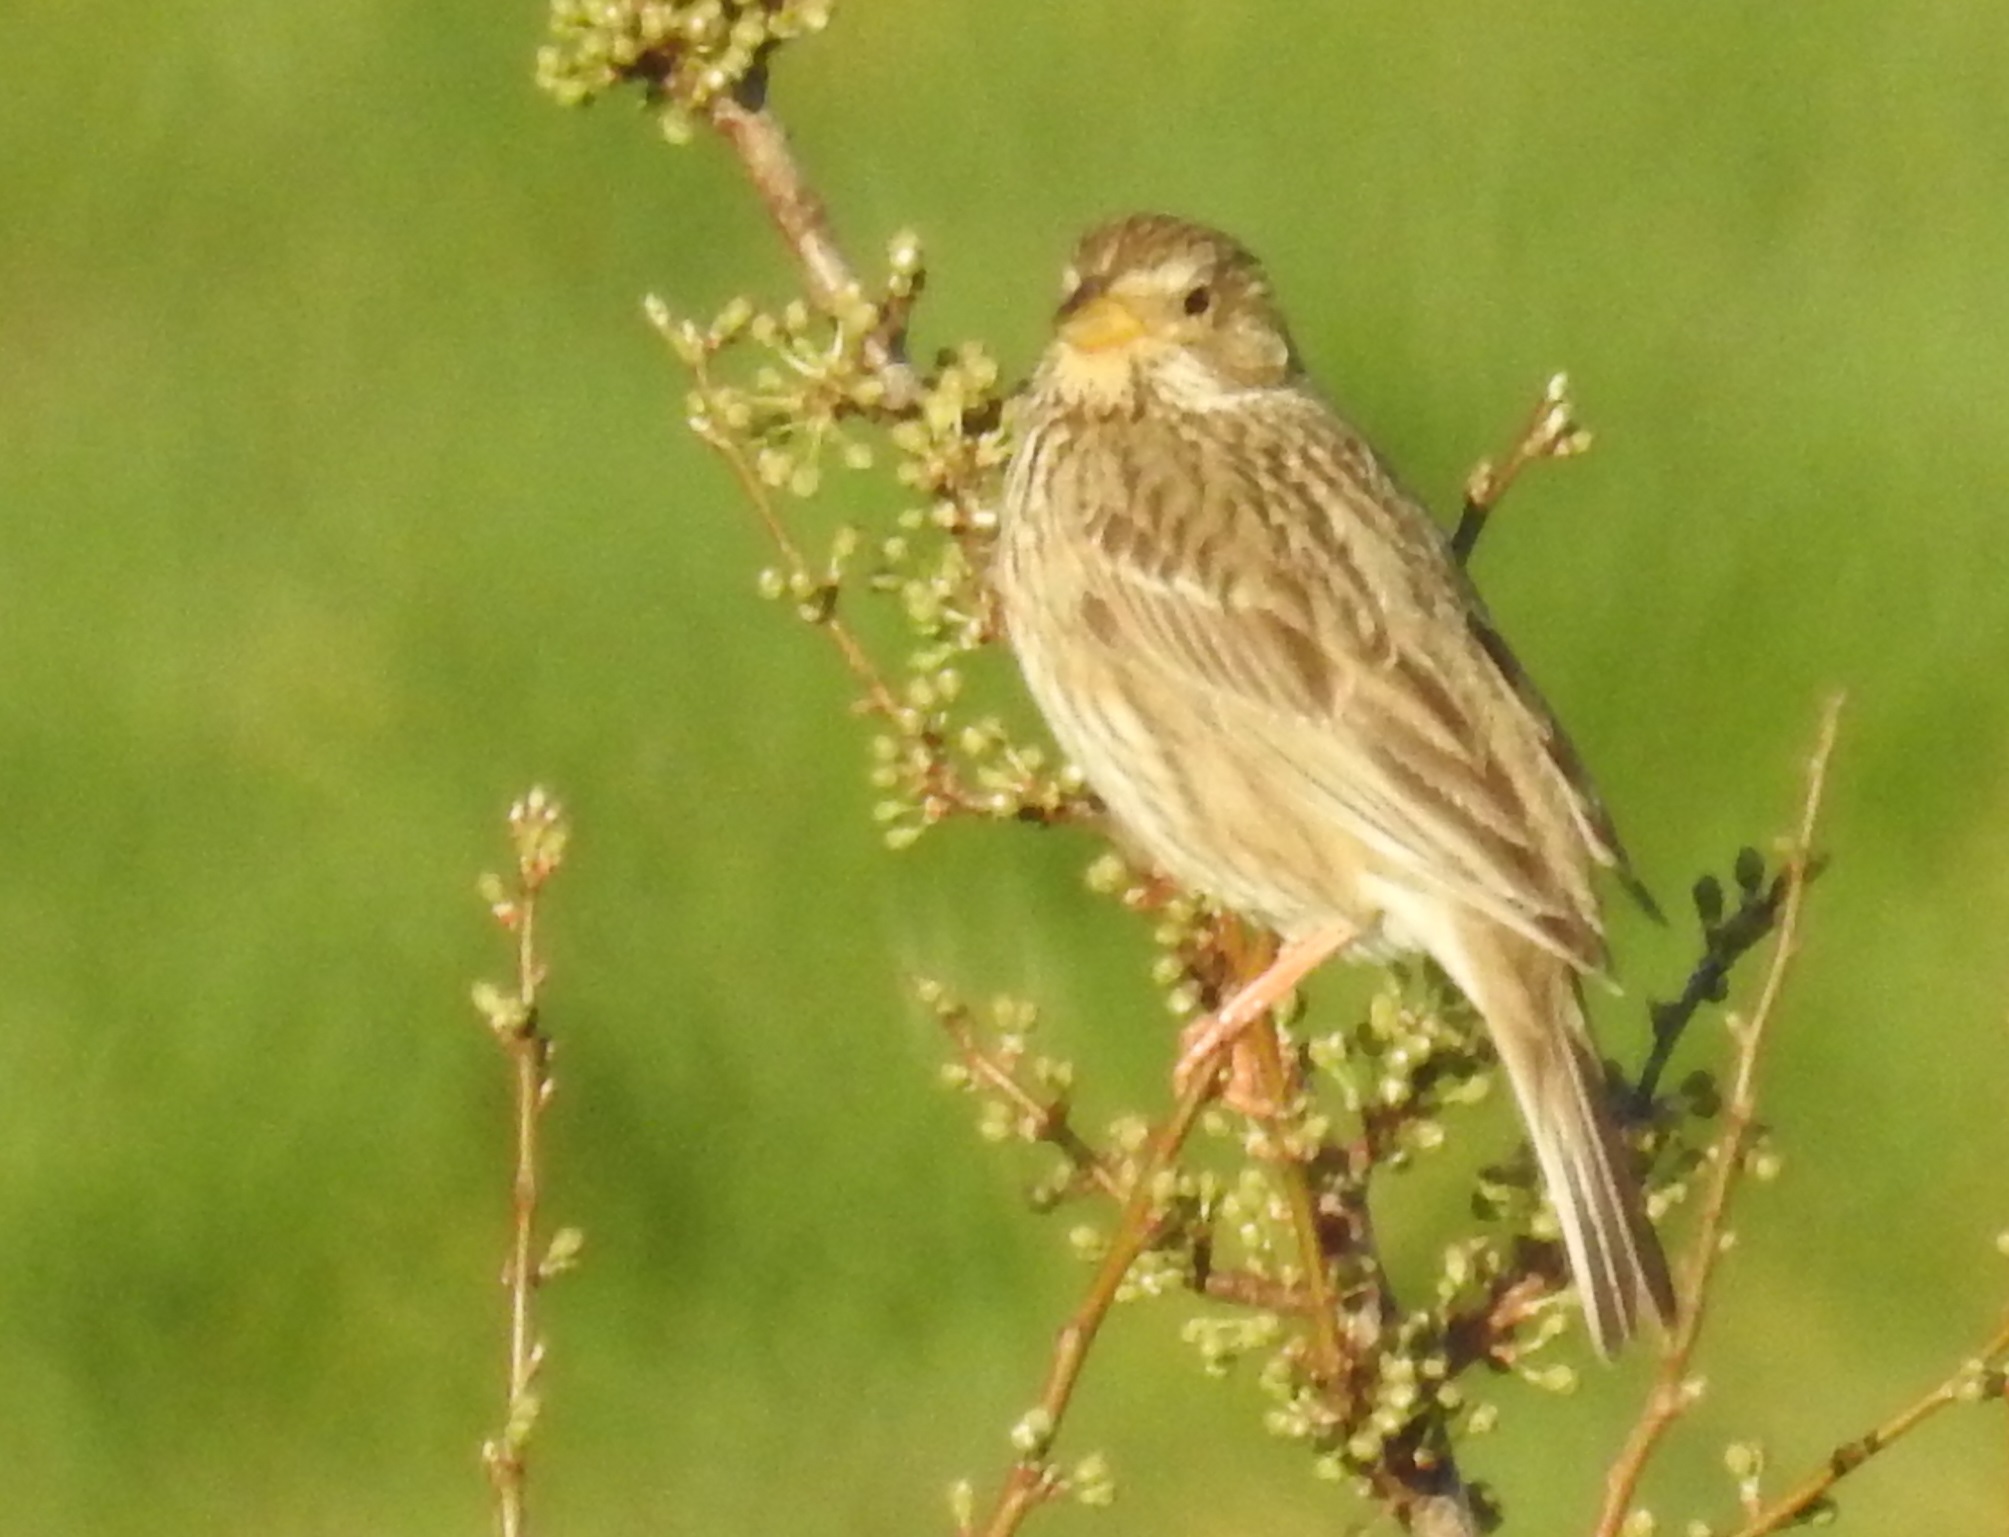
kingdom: Animalia
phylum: Chordata
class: Aves
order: Passeriformes
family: Emberizidae
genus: Emberiza
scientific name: Emberiza calandra
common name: Corn bunting
